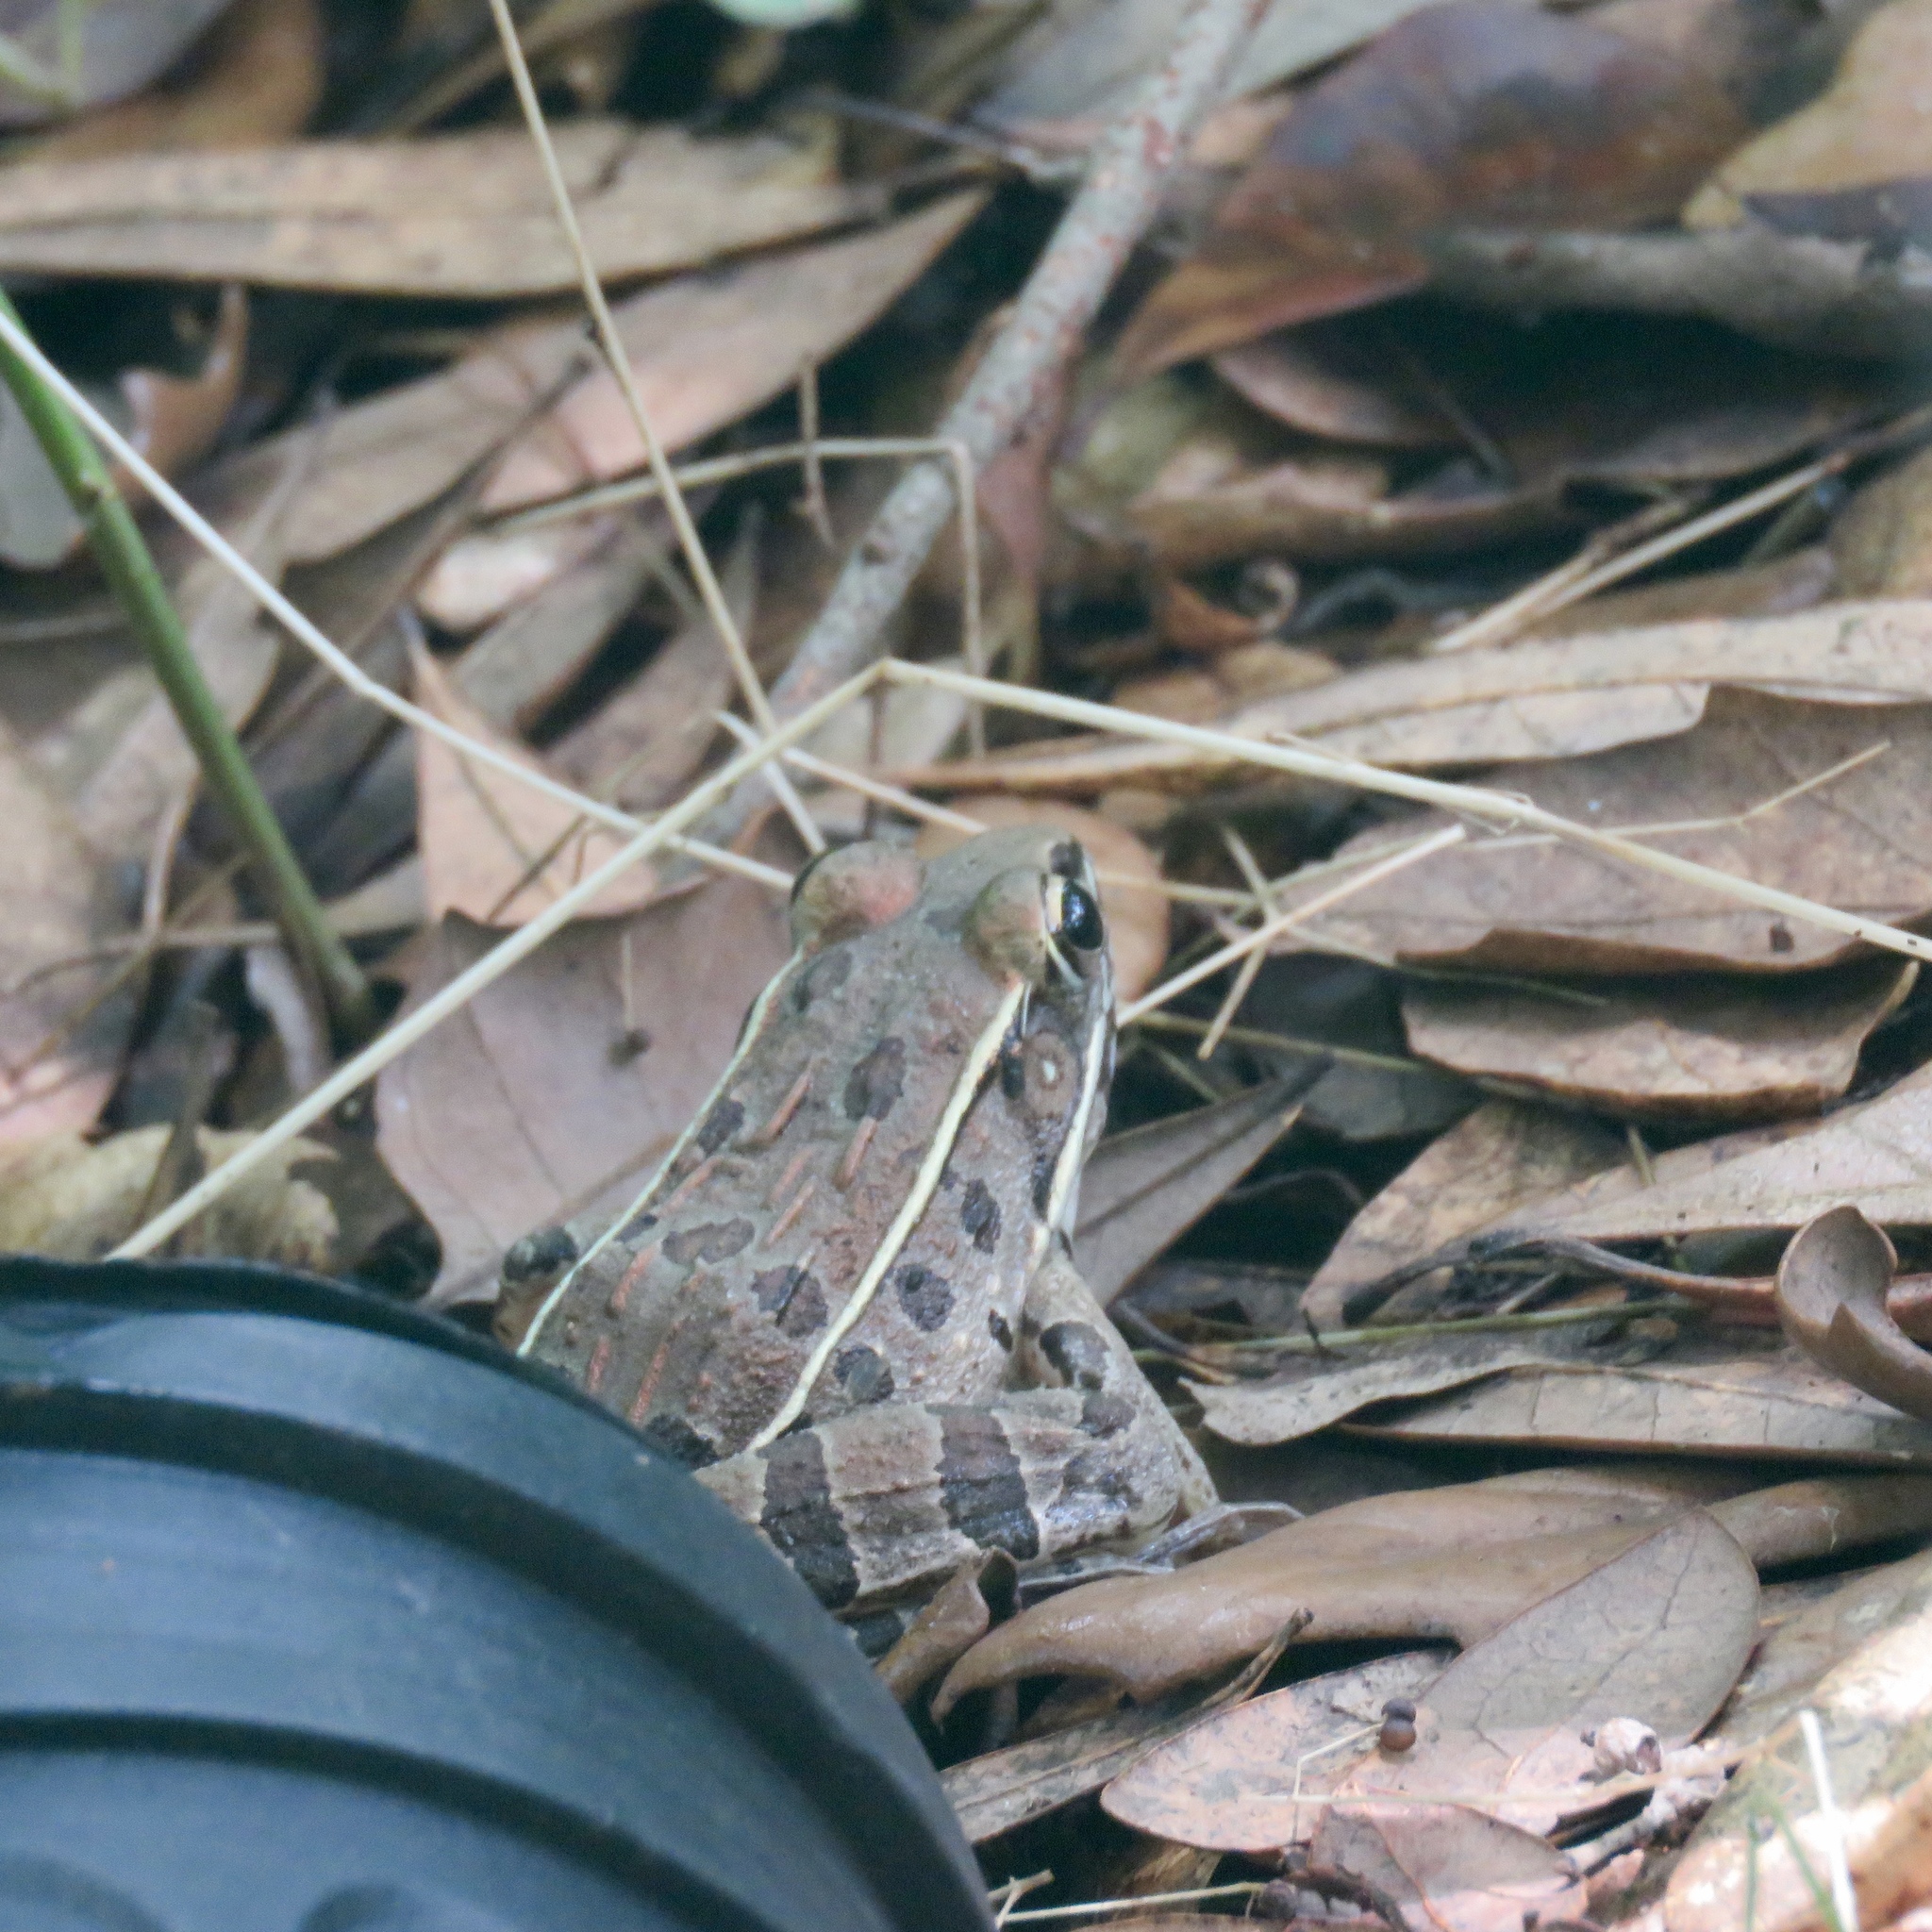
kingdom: Animalia
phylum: Chordata
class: Amphibia
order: Anura
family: Ranidae
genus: Lithobates
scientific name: Lithobates sphenocephalus
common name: Southern leopard frog
